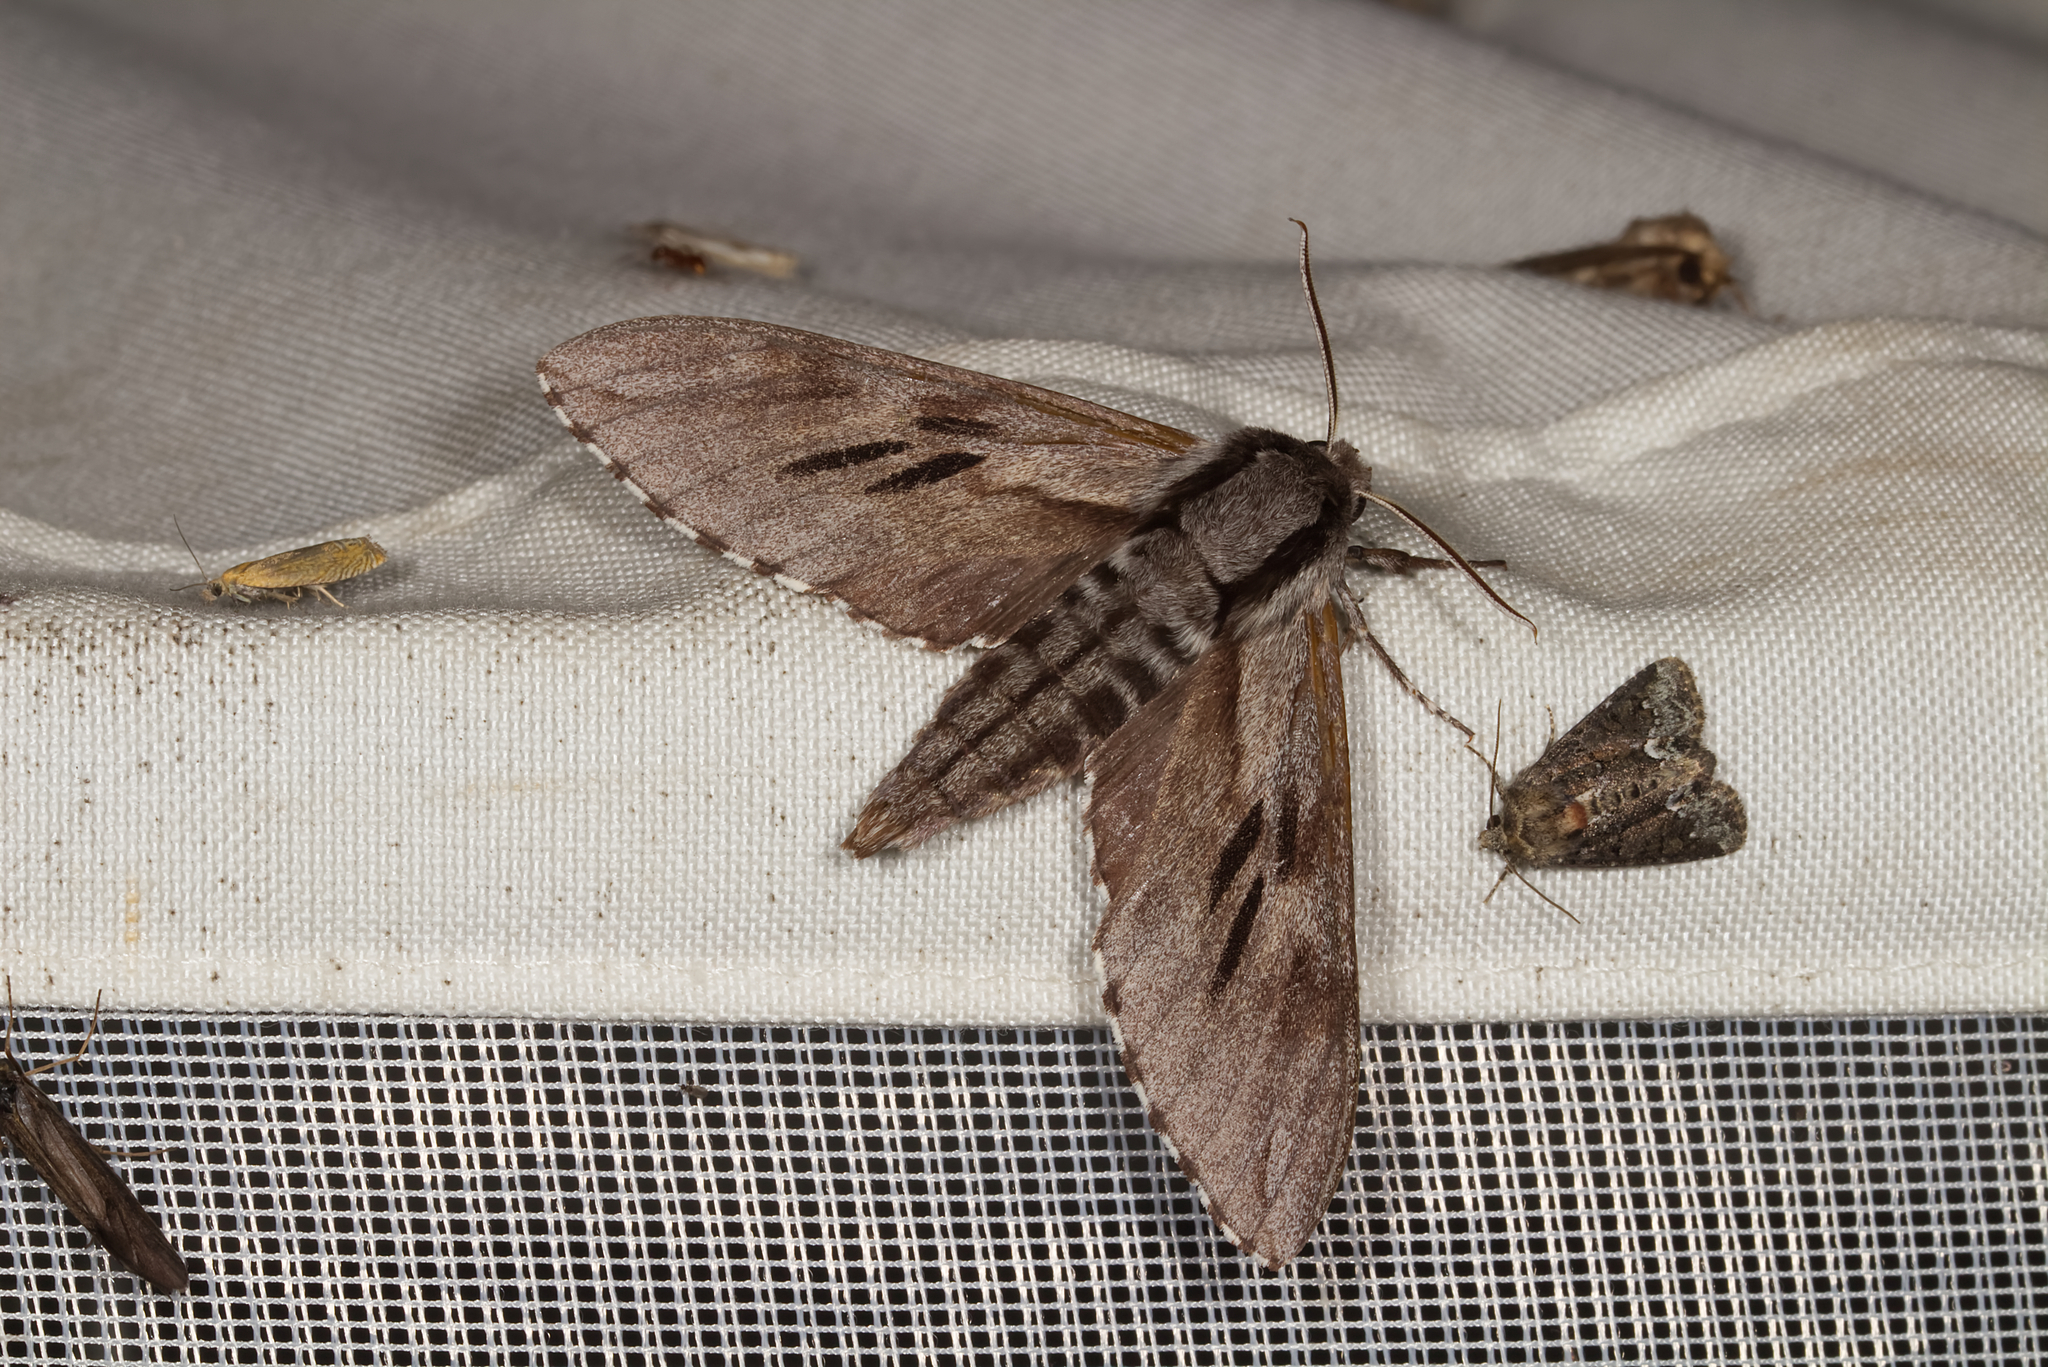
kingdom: Animalia
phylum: Arthropoda
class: Insecta
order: Lepidoptera
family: Sphingidae
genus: Sphinx
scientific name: Sphinx pinastri
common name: Pine hawk-moth
